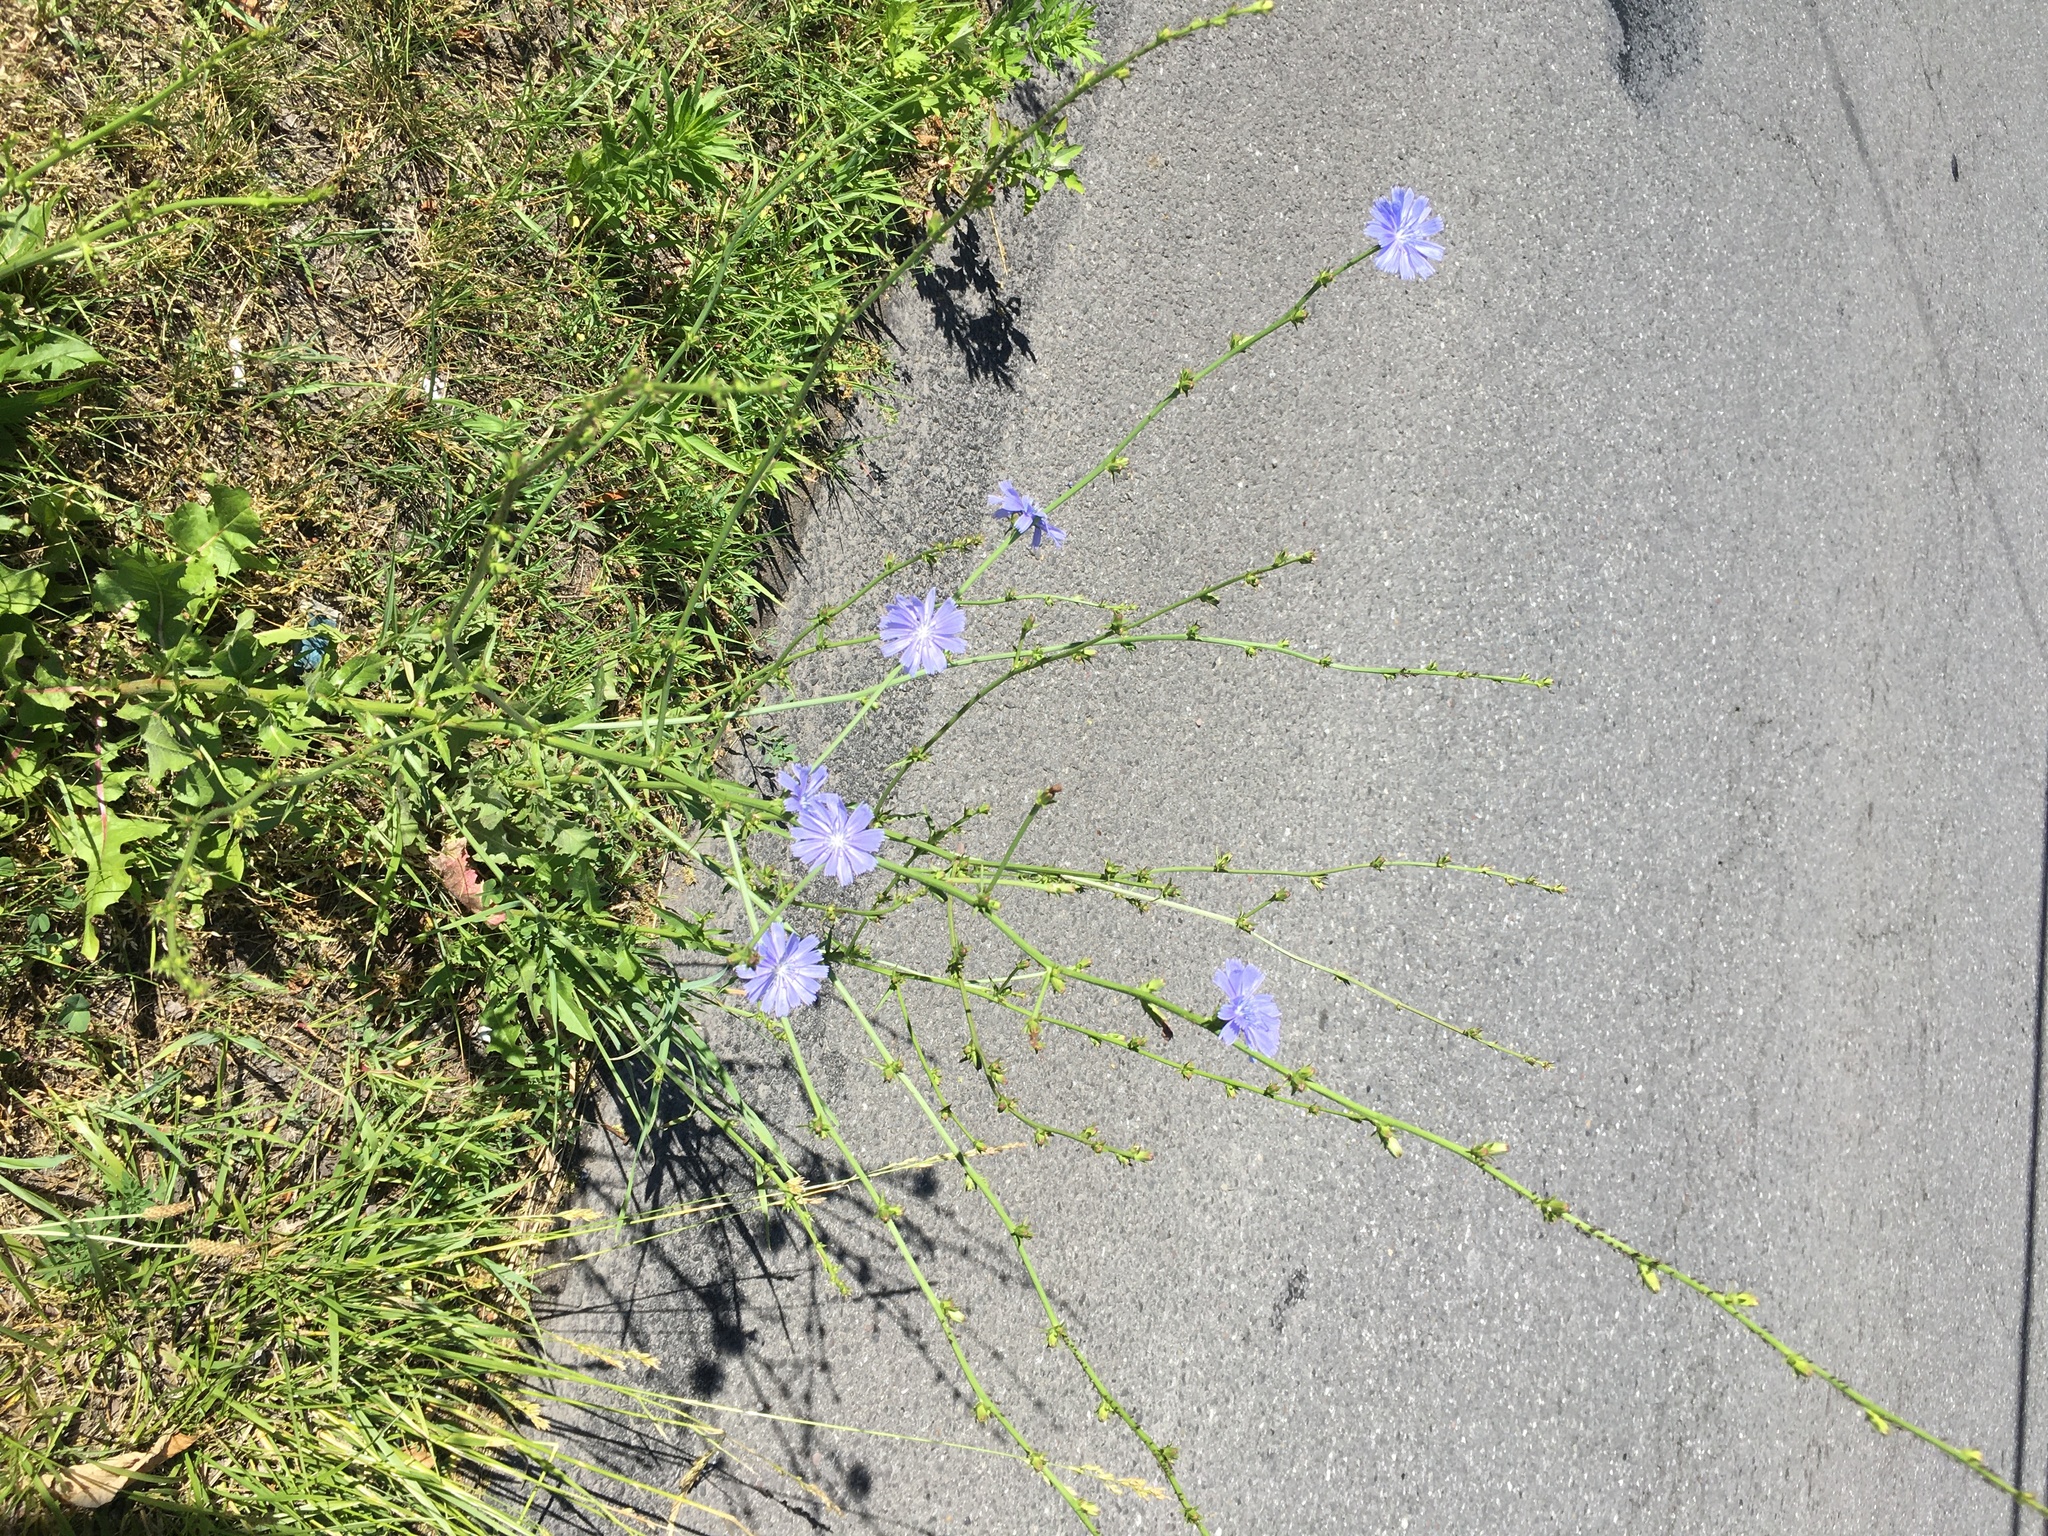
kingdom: Plantae
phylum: Tracheophyta
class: Magnoliopsida
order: Asterales
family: Asteraceae
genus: Cichorium
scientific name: Cichorium intybus
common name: Chicory
